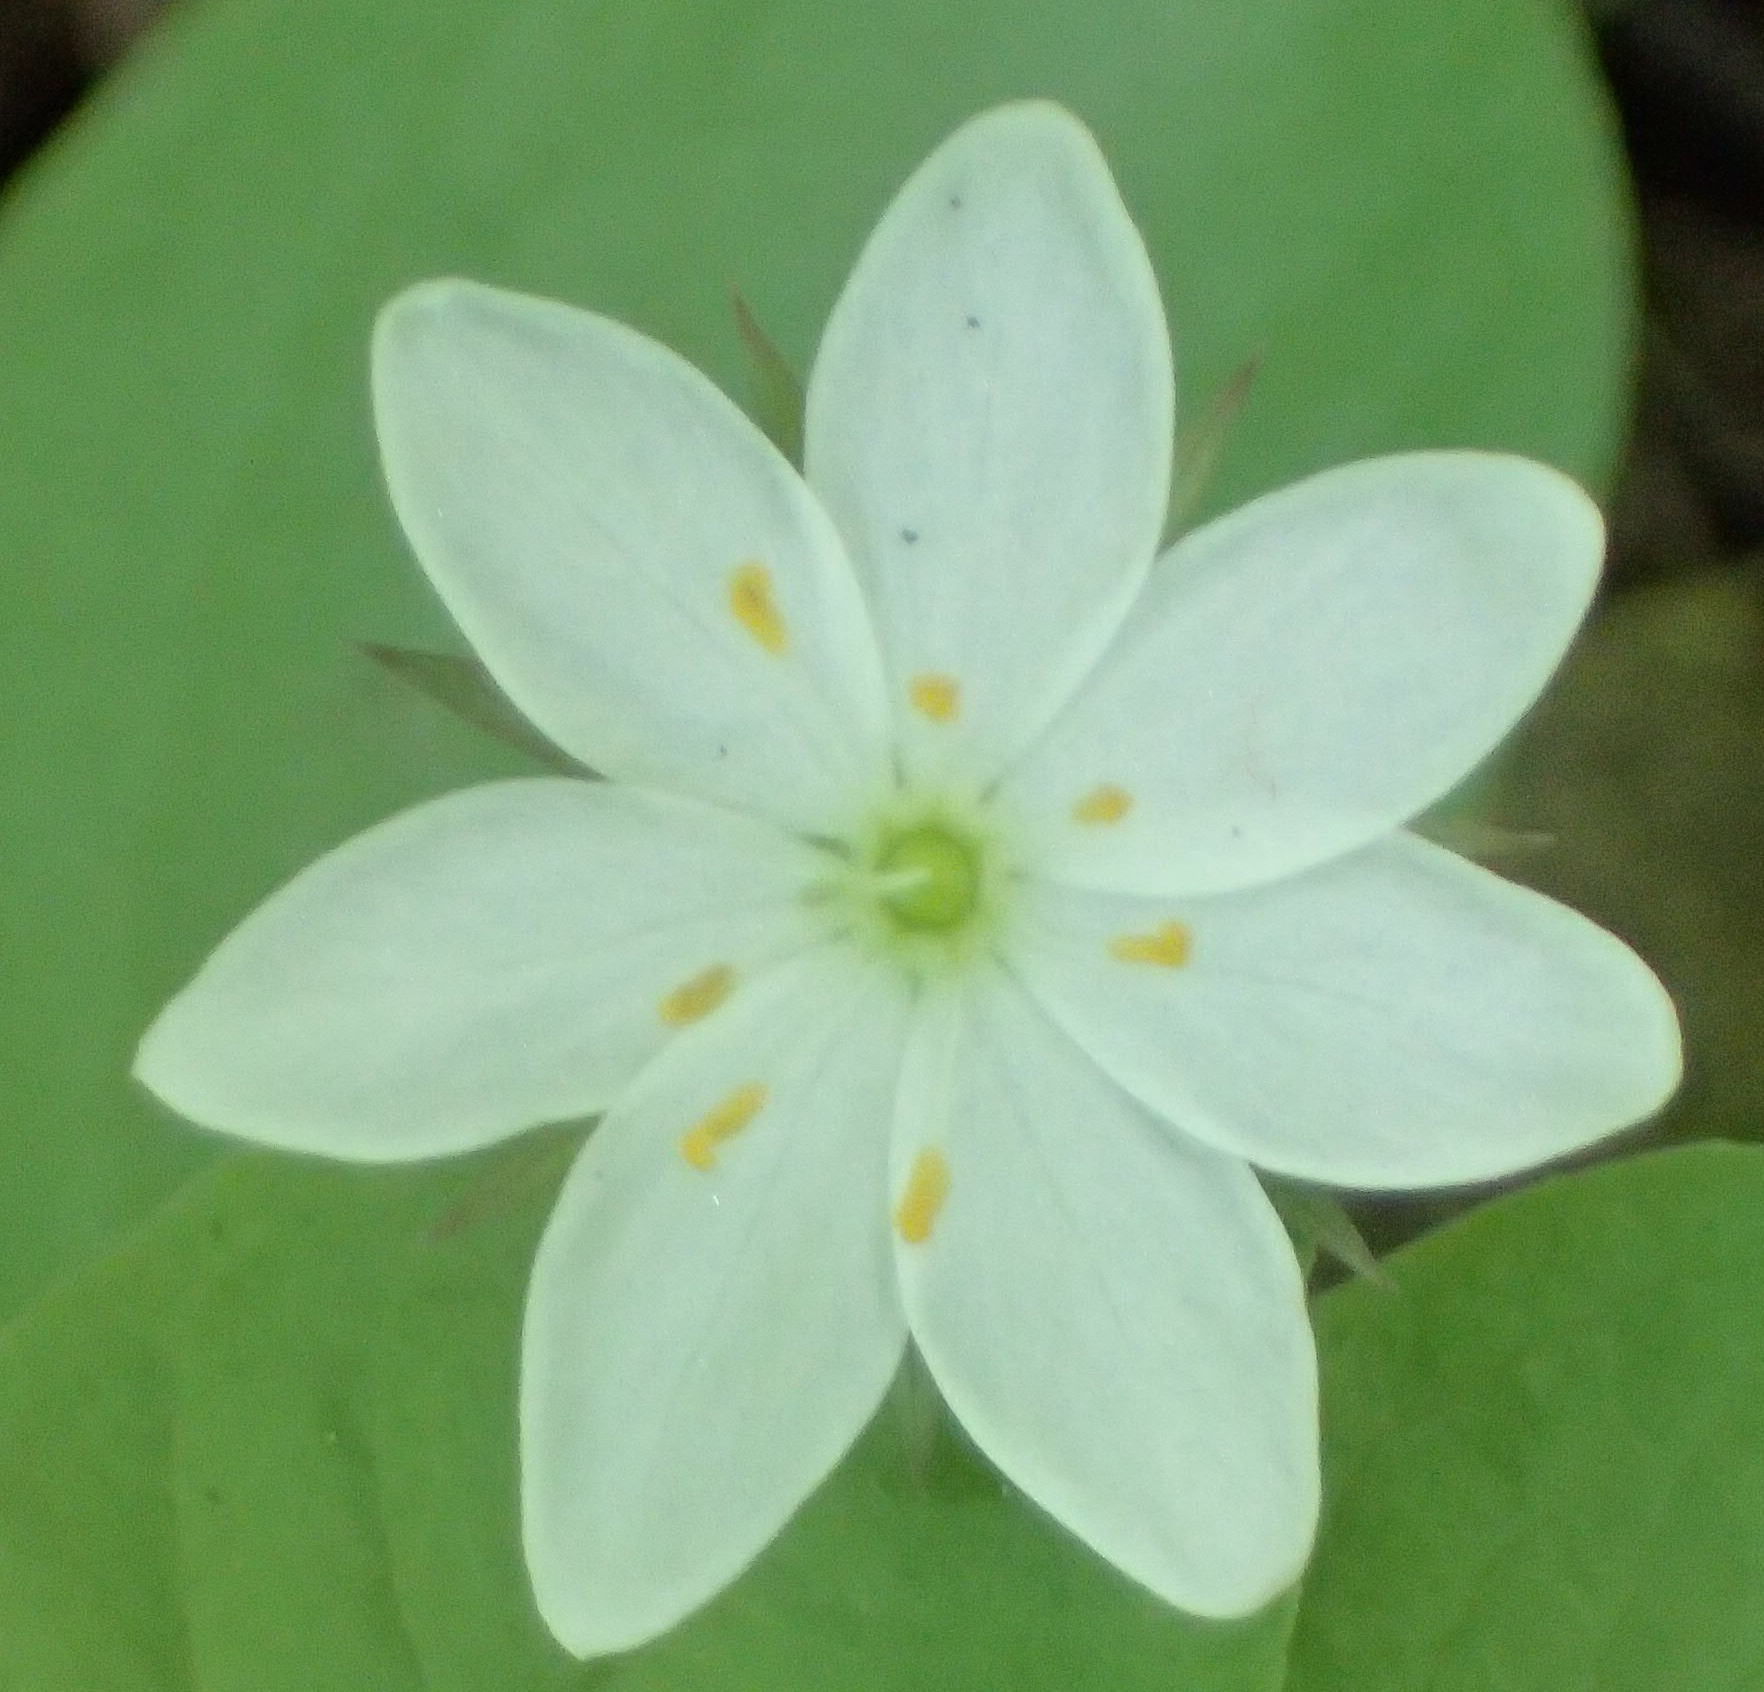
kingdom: Plantae
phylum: Tracheophyta
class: Magnoliopsida
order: Ericales
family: Primulaceae
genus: Lysimachia
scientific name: Lysimachia europaea
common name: Arctic starflower
